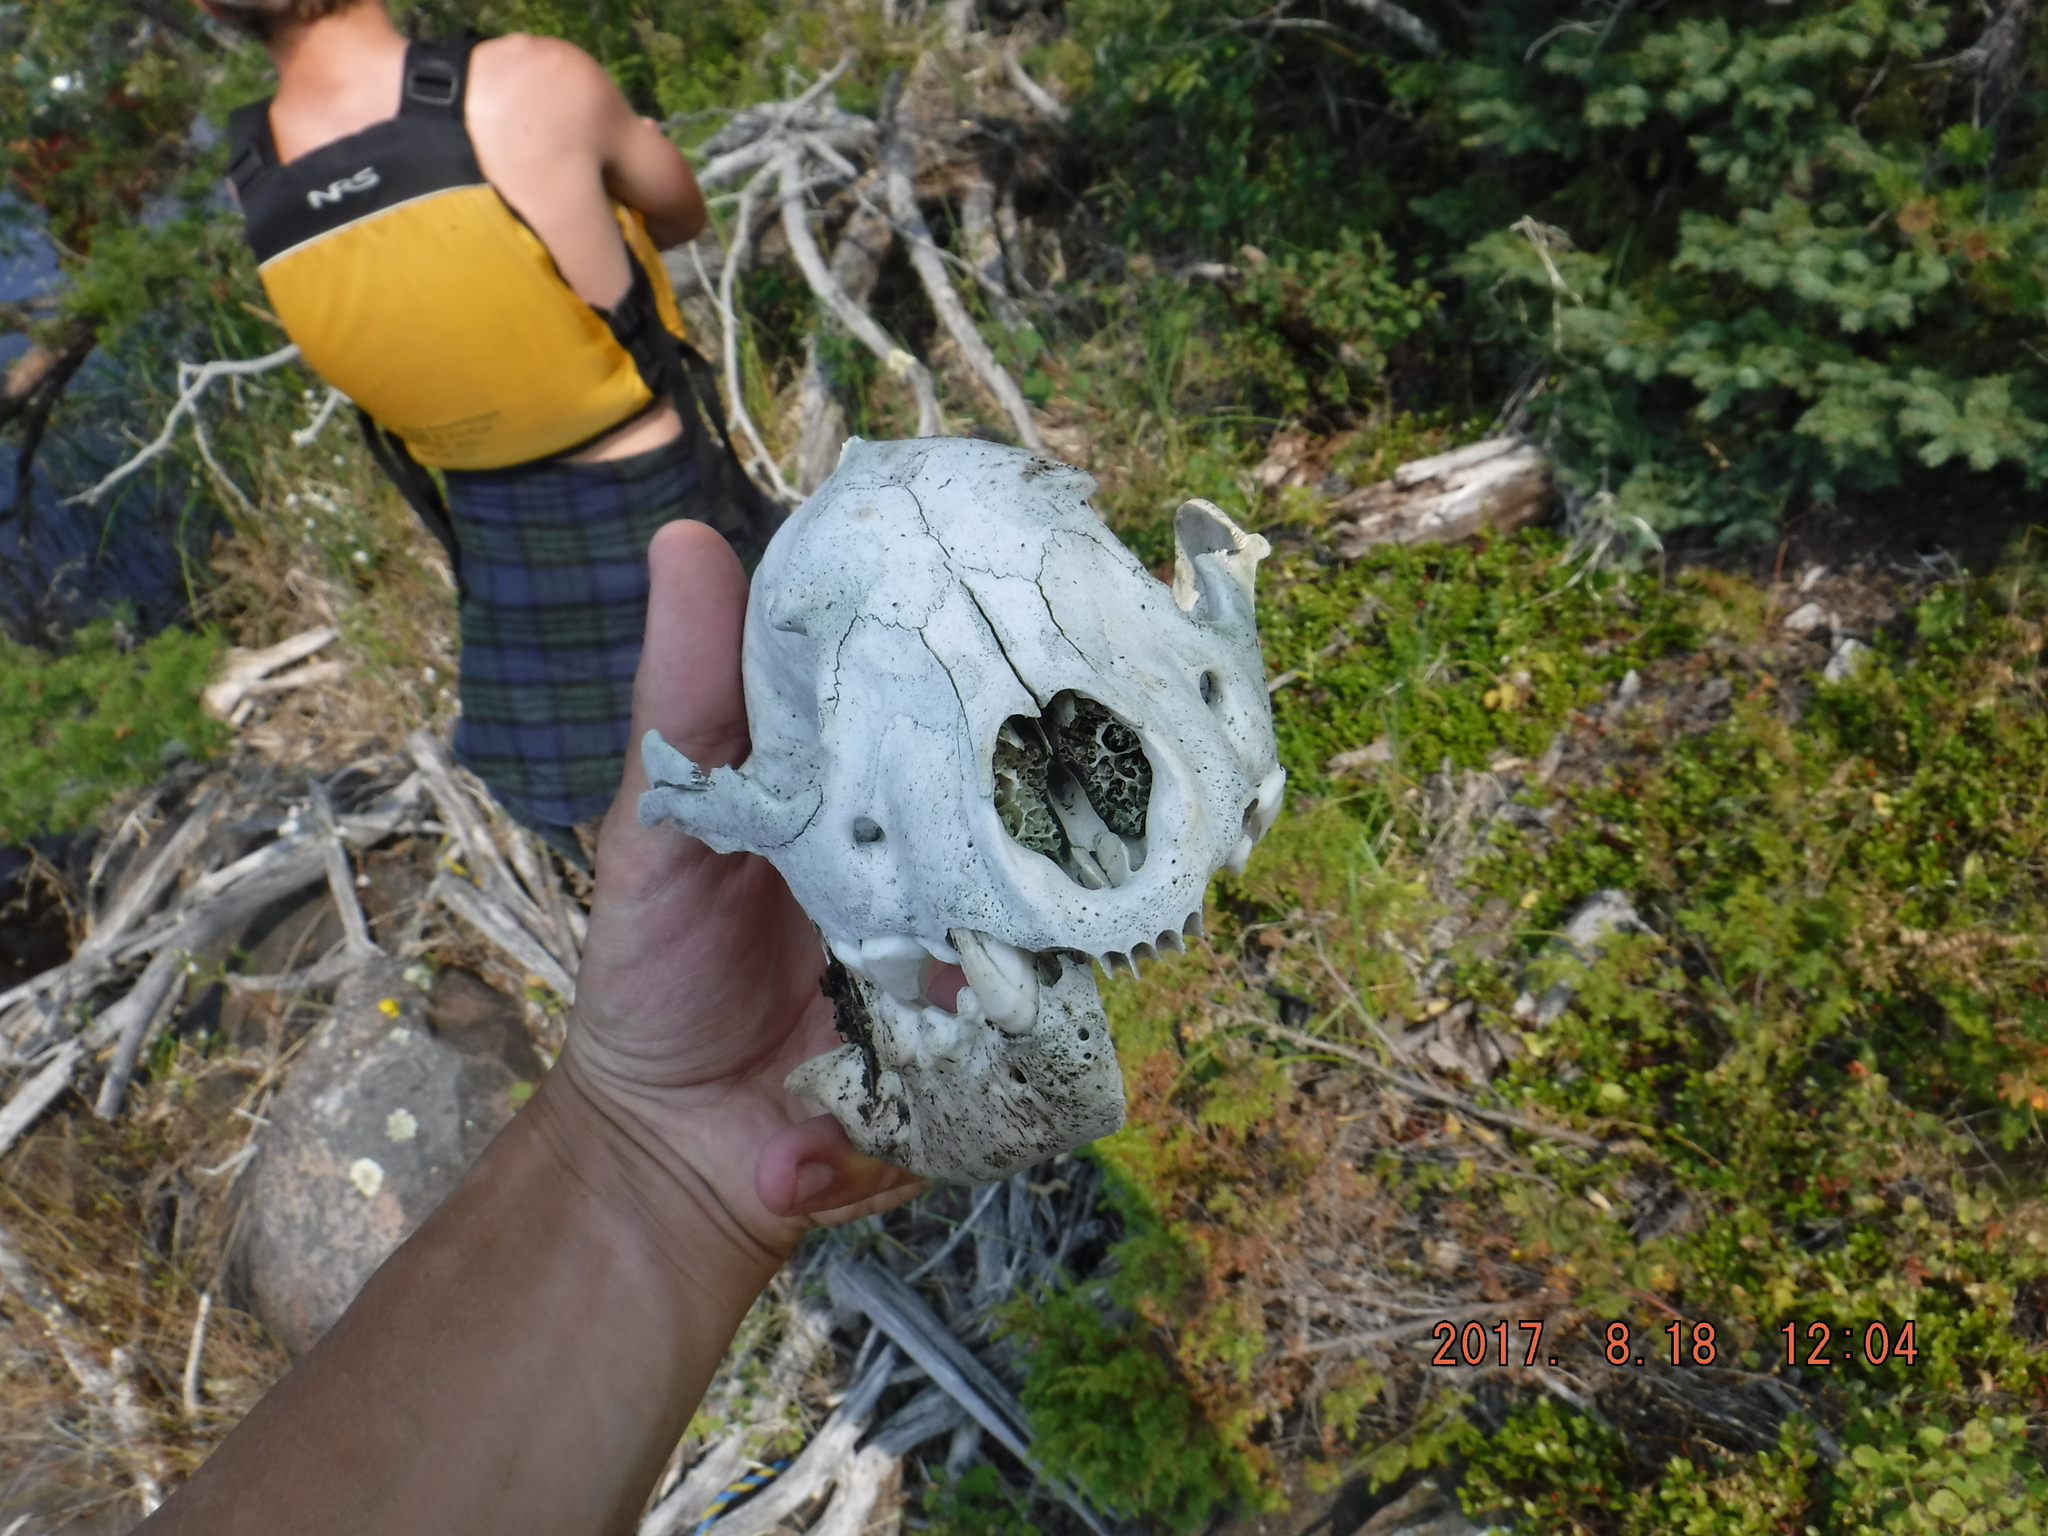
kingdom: Animalia
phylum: Chordata
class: Mammalia
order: Carnivora
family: Mustelidae
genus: Gulo
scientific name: Gulo gulo
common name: Wolverine
